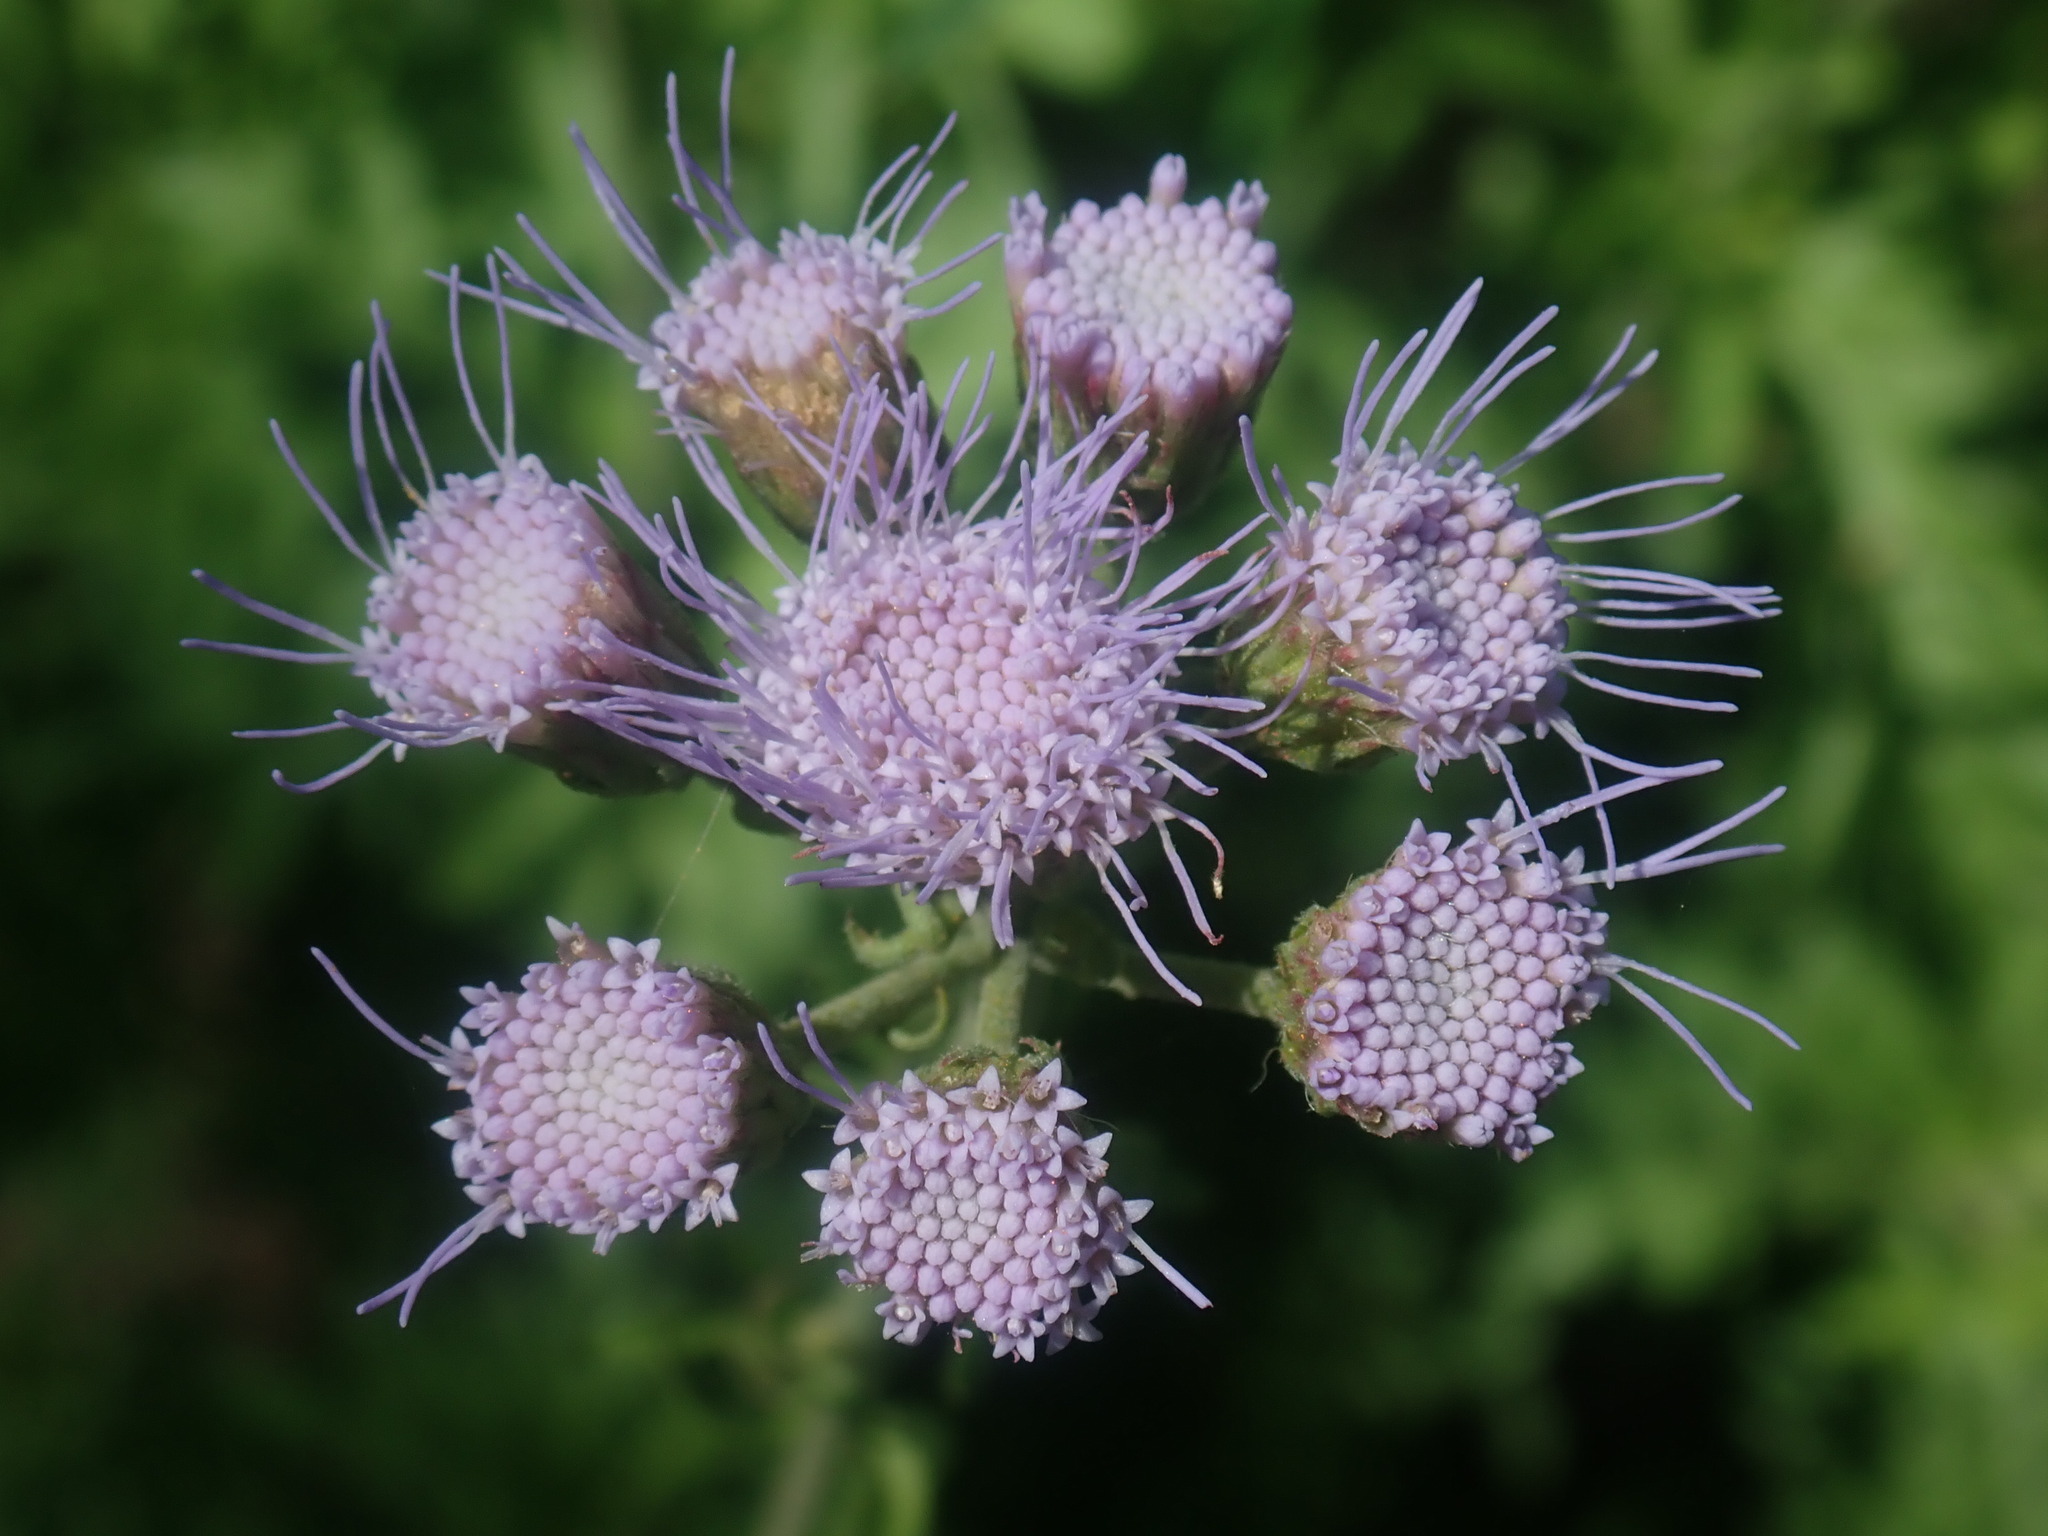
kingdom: Plantae
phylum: Tracheophyta
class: Magnoliopsida
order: Asterales
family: Asteraceae
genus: Conoclinium
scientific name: Conoclinium dissectum
